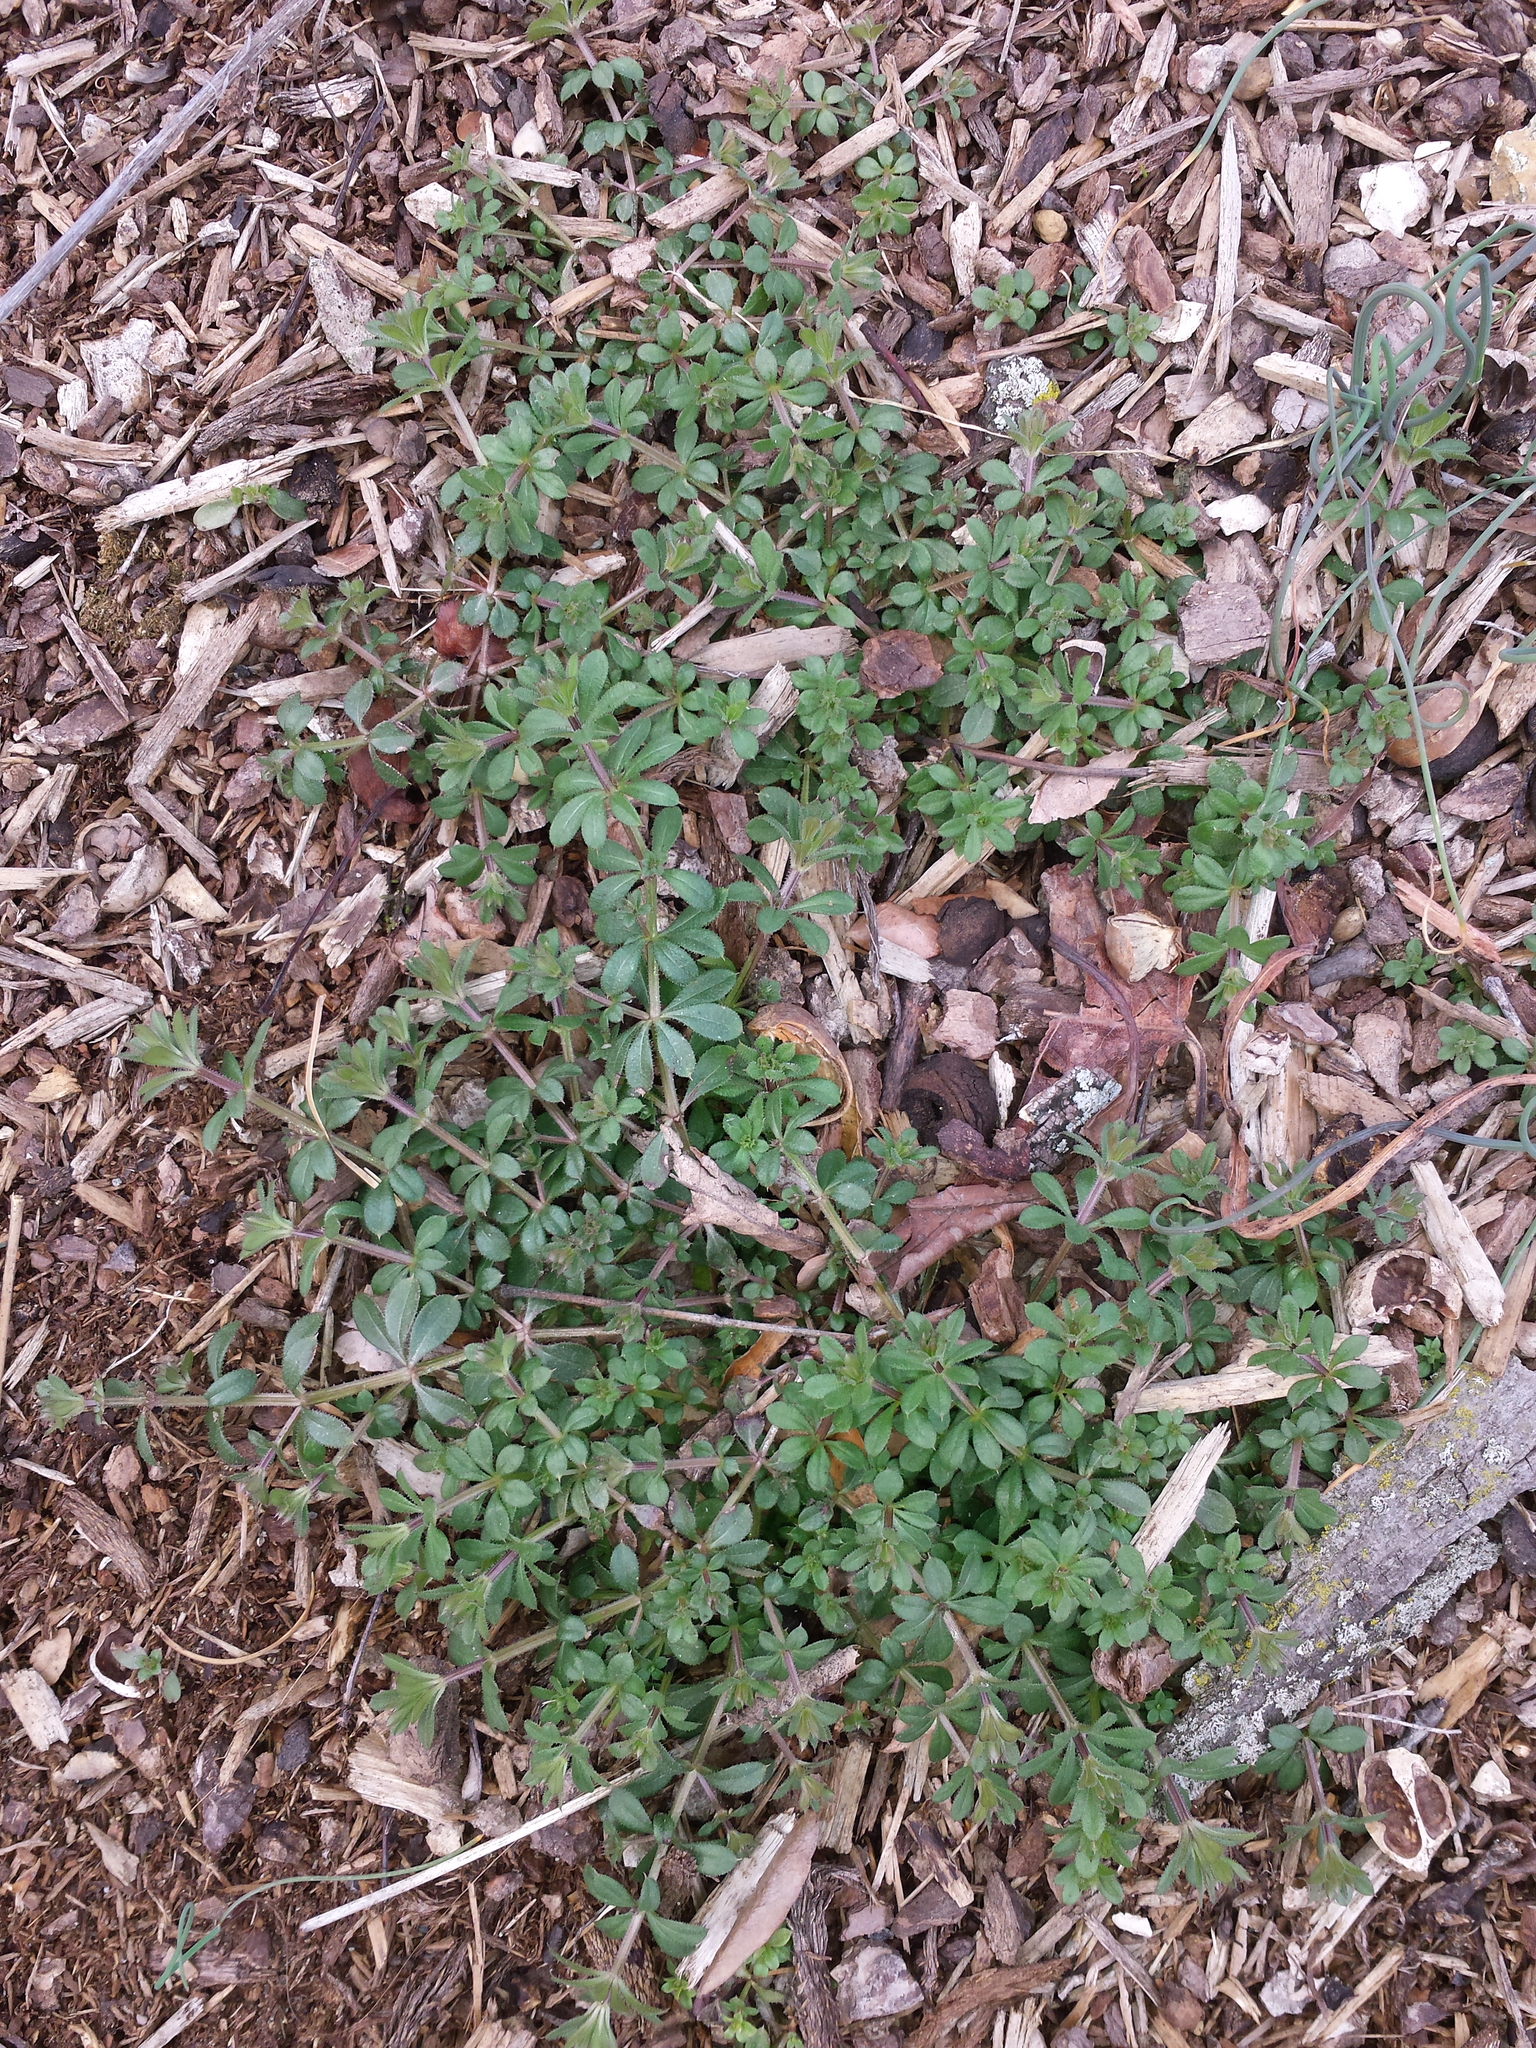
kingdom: Plantae
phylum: Tracheophyta
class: Magnoliopsida
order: Gentianales
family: Rubiaceae
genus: Galium
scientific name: Galium aparine
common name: Cleavers
